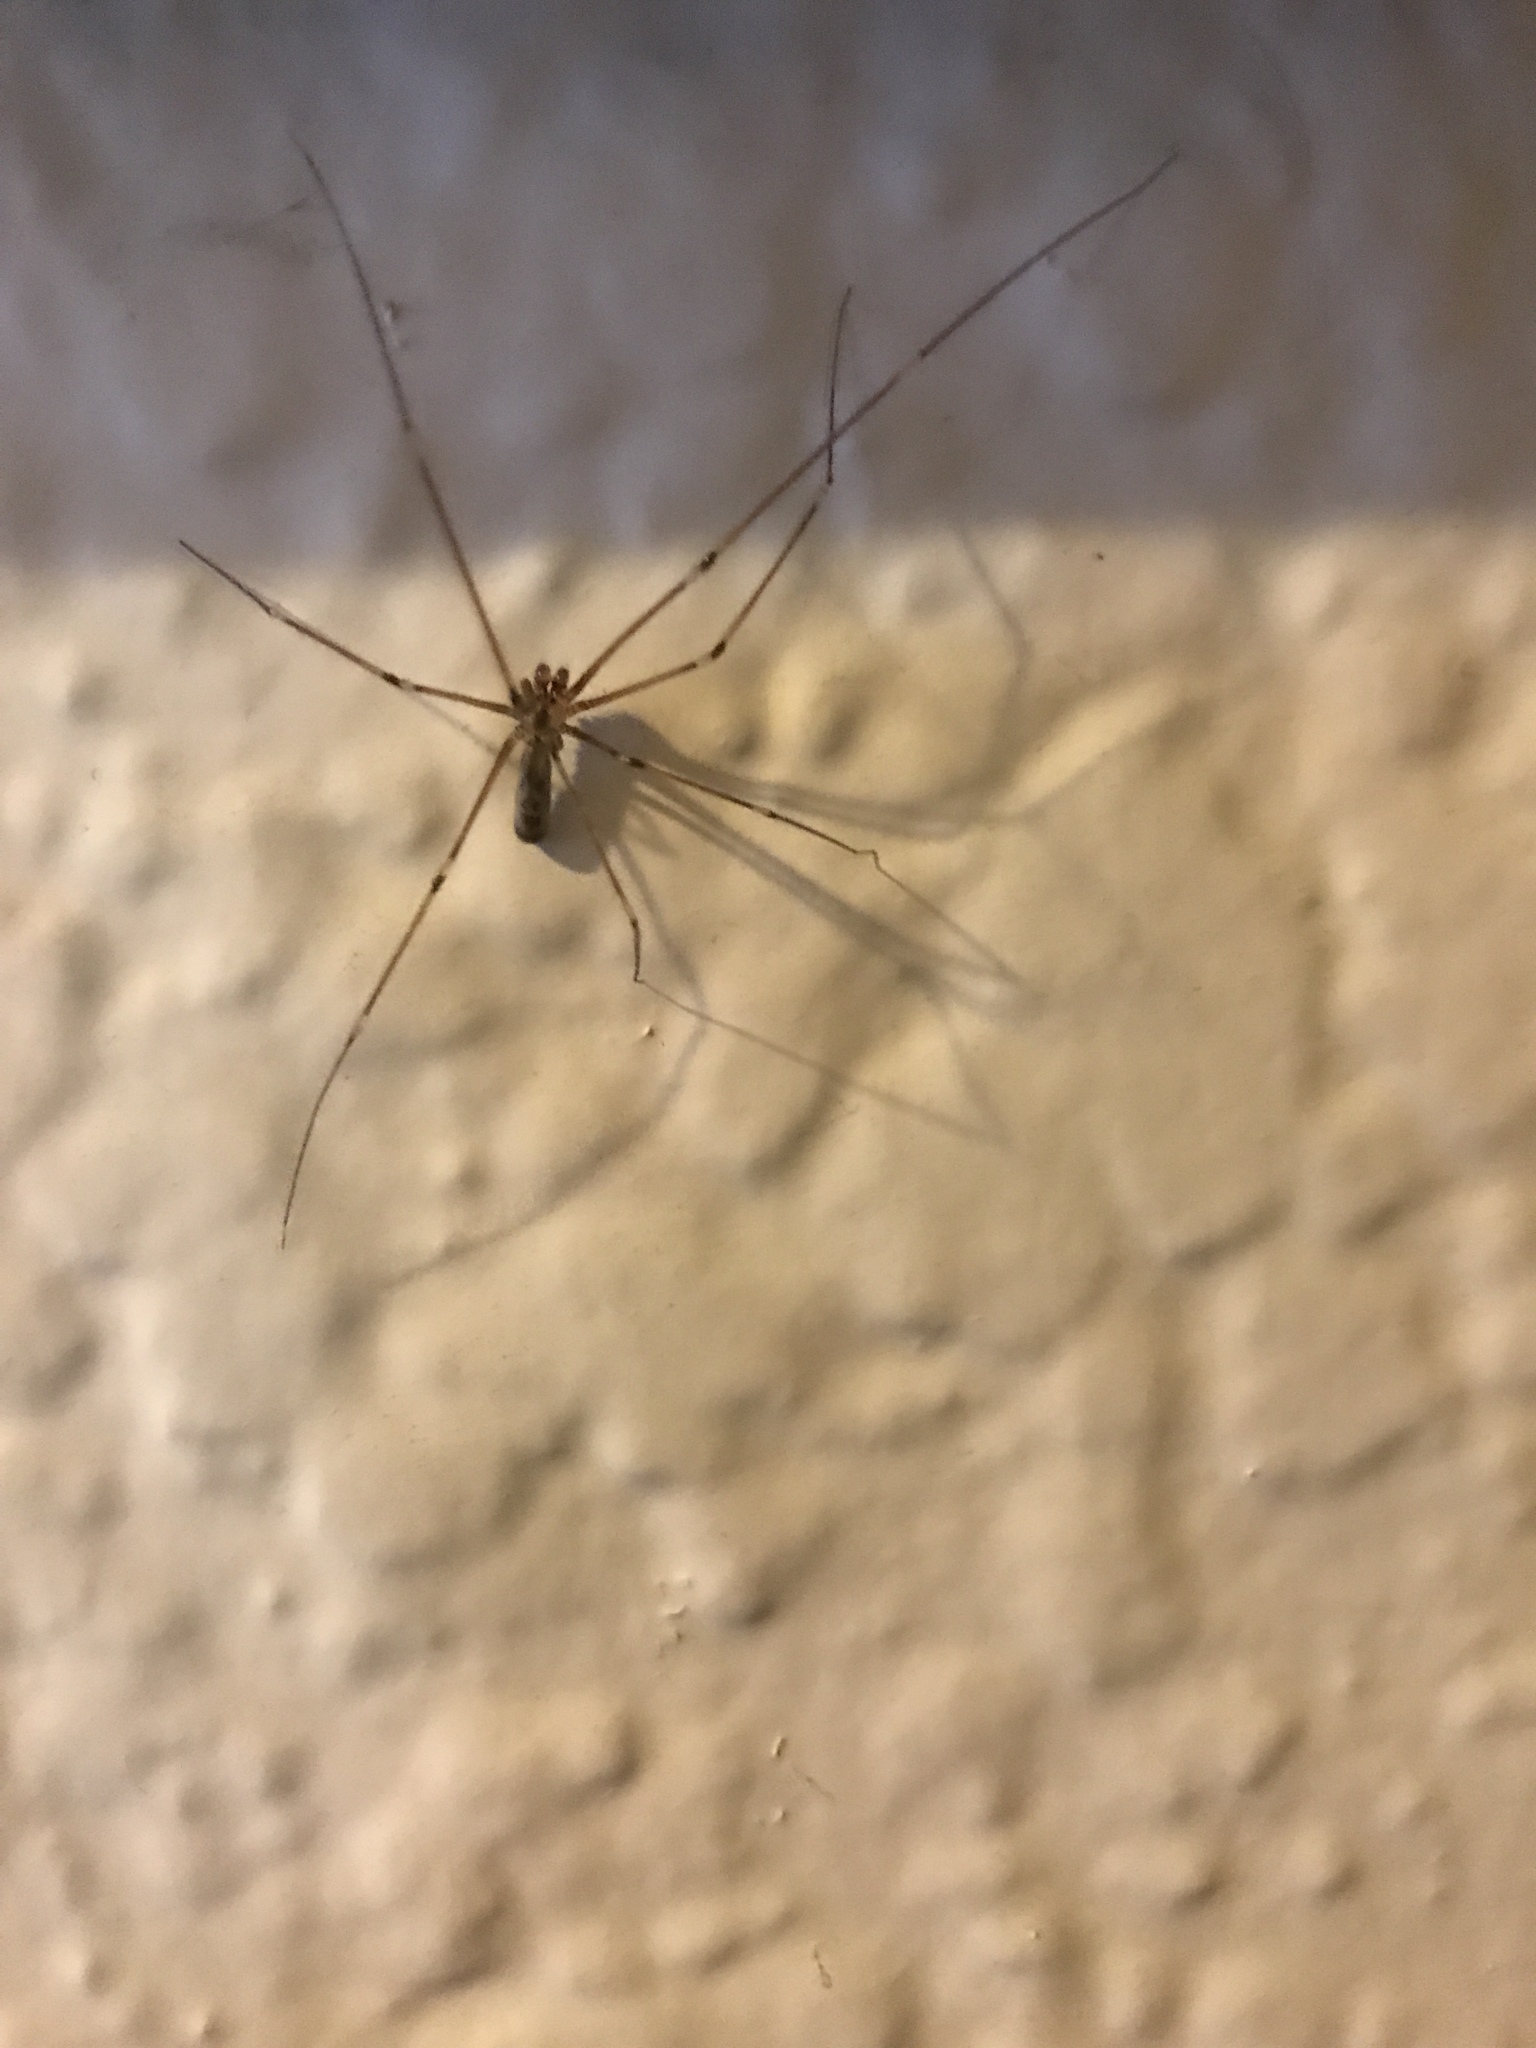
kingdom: Animalia
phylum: Arthropoda
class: Arachnida
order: Araneae
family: Pholcidae
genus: Pholcus
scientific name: Pholcus phalangioides
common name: Longbodied cellar spider
